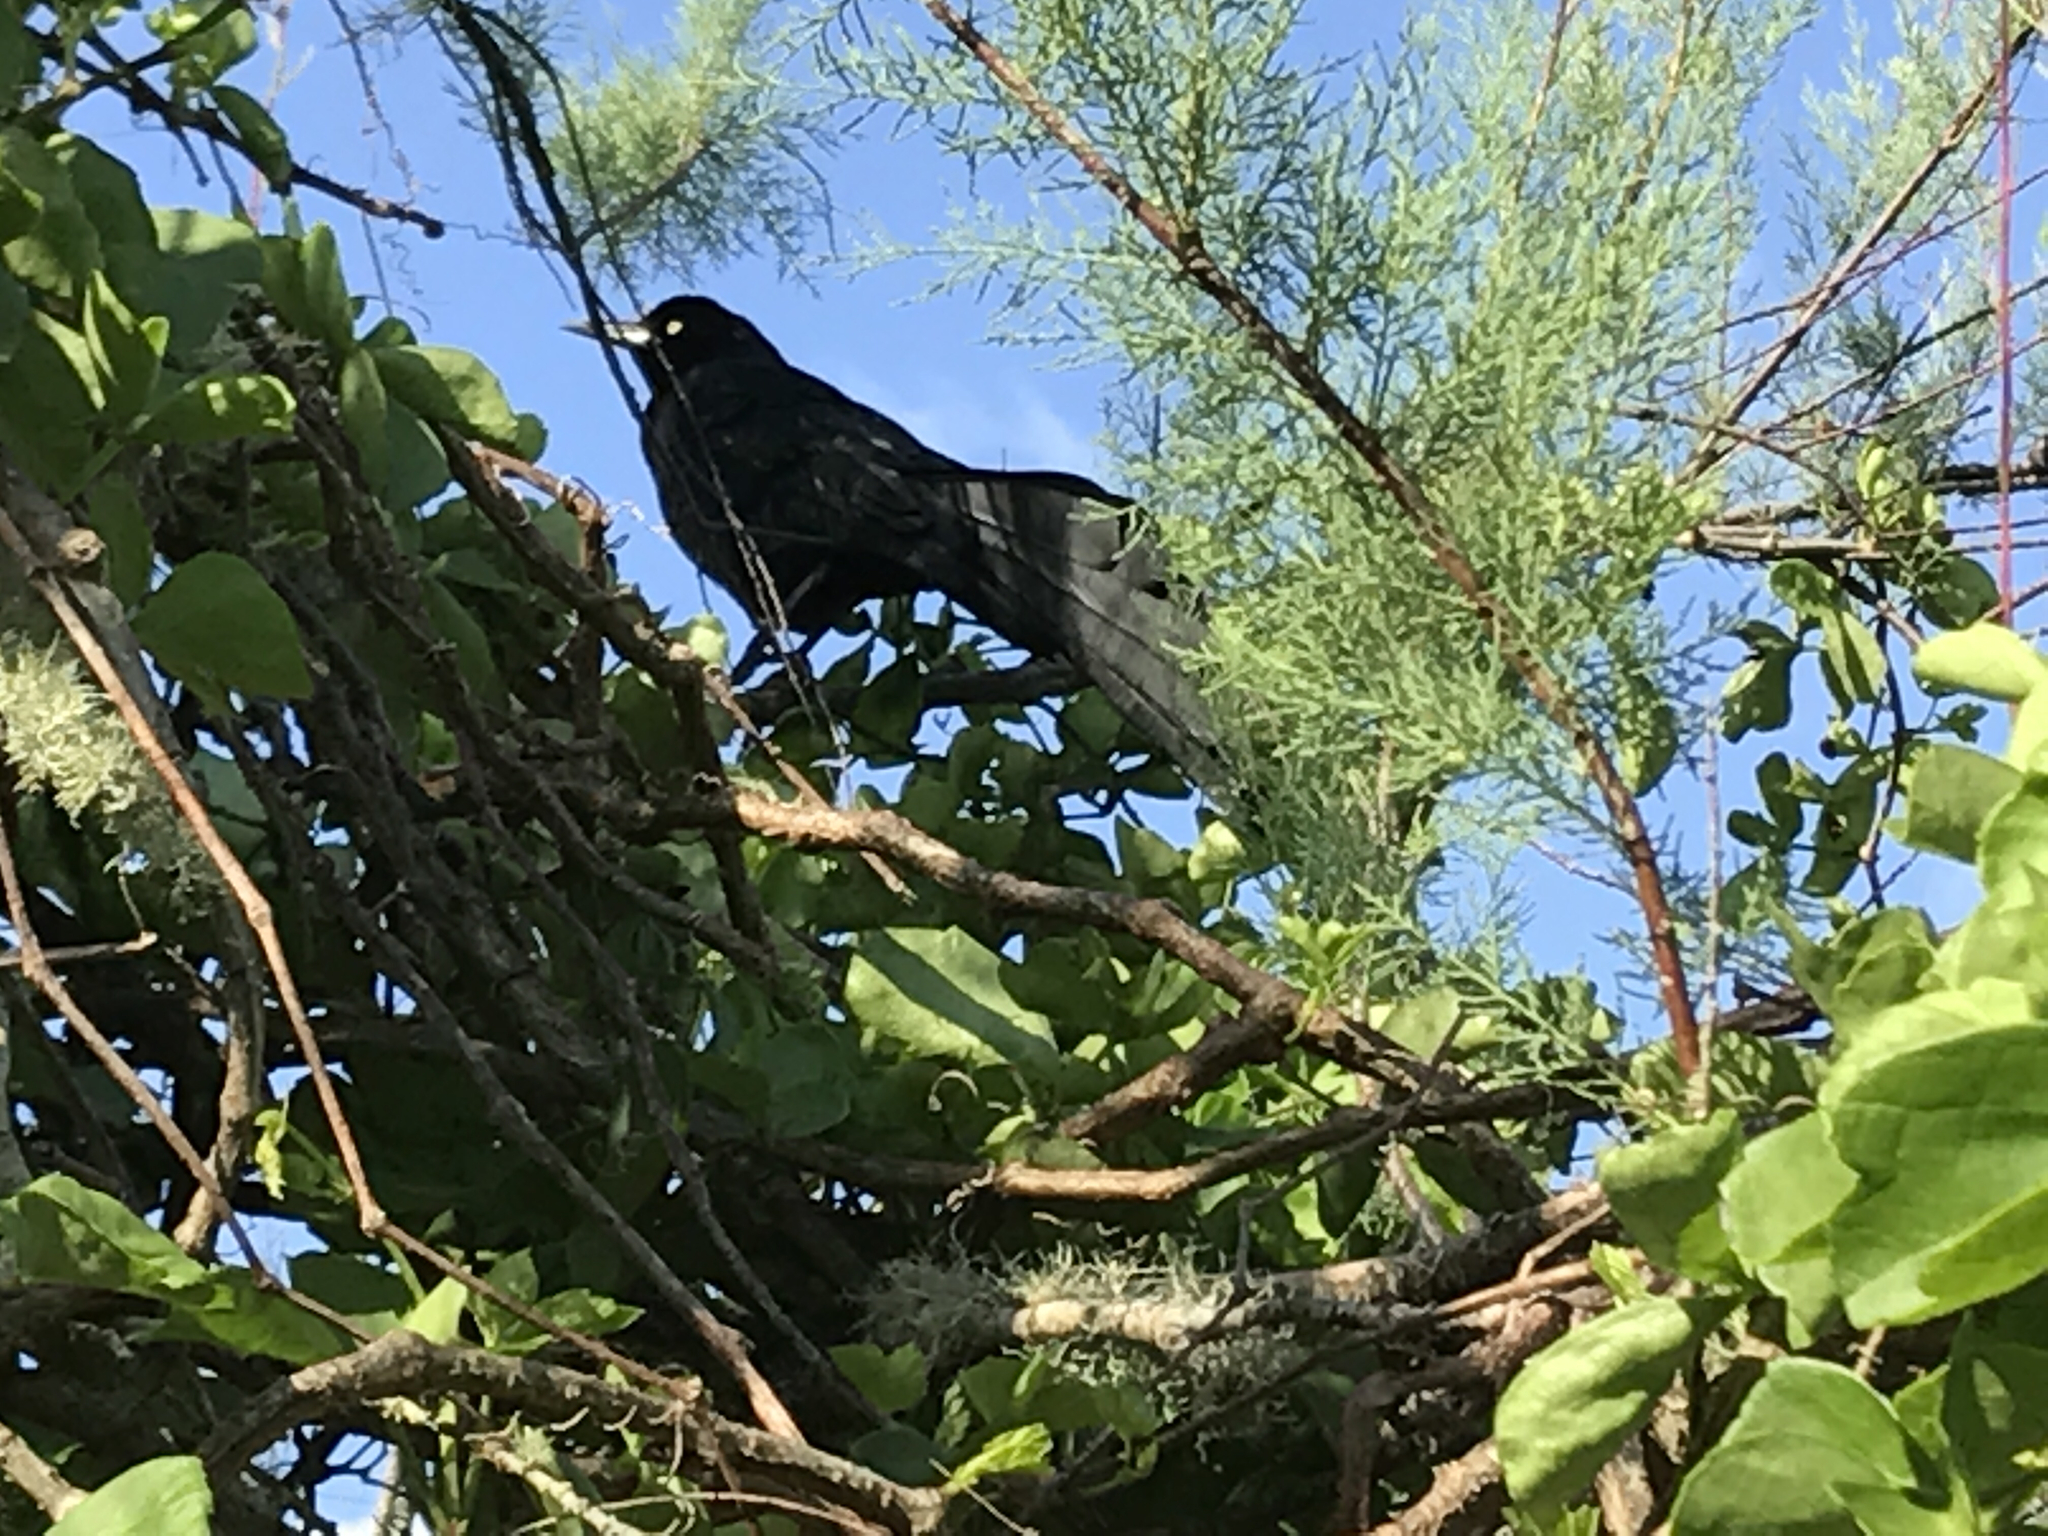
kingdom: Animalia
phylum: Chordata
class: Aves
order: Passeriformes
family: Icteridae
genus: Quiscalus
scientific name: Quiscalus mexicanus
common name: Great-tailed grackle
